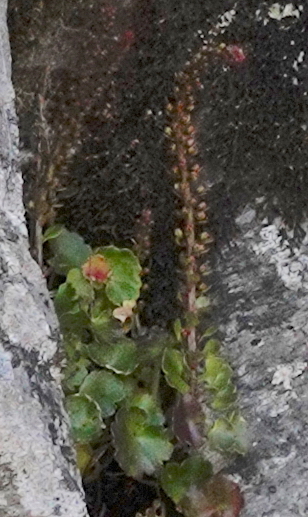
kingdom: Plantae
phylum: Tracheophyta
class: Magnoliopsida
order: Saxifragales
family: Crassulaceae
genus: Umbilicus
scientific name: Umbilicus rupestris
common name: Navelwort
